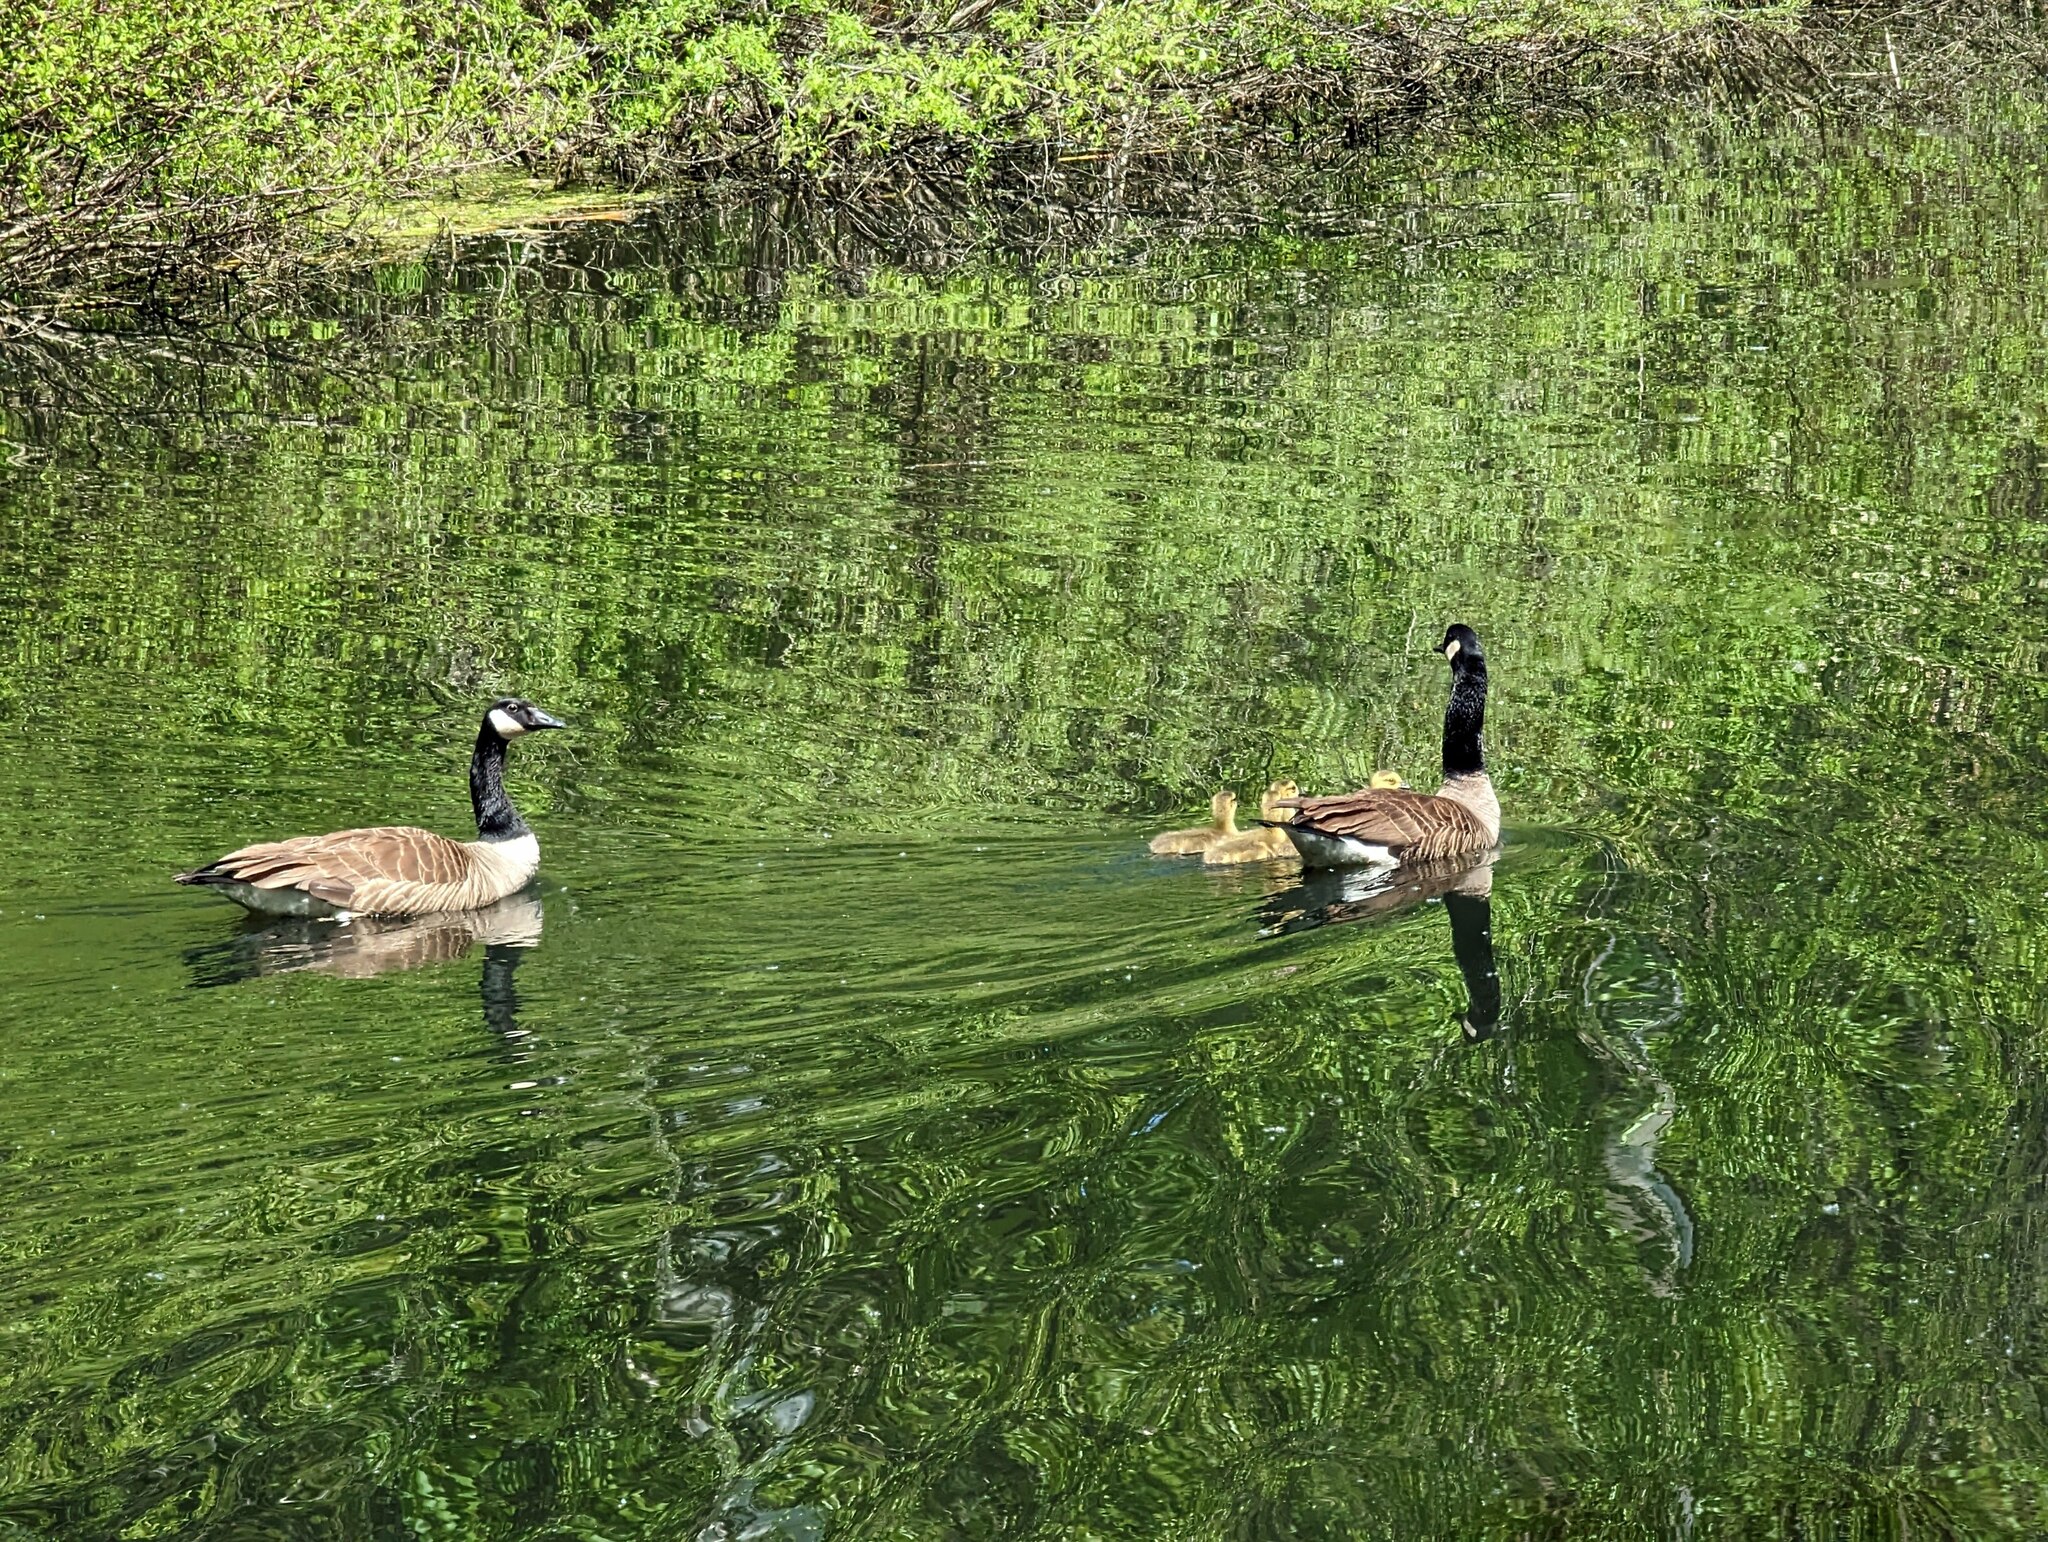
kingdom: Animalia
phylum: Chordata
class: Aves
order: Anseriformes
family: Anatidae
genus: Branta
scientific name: Branta canadensis
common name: Canada goose
